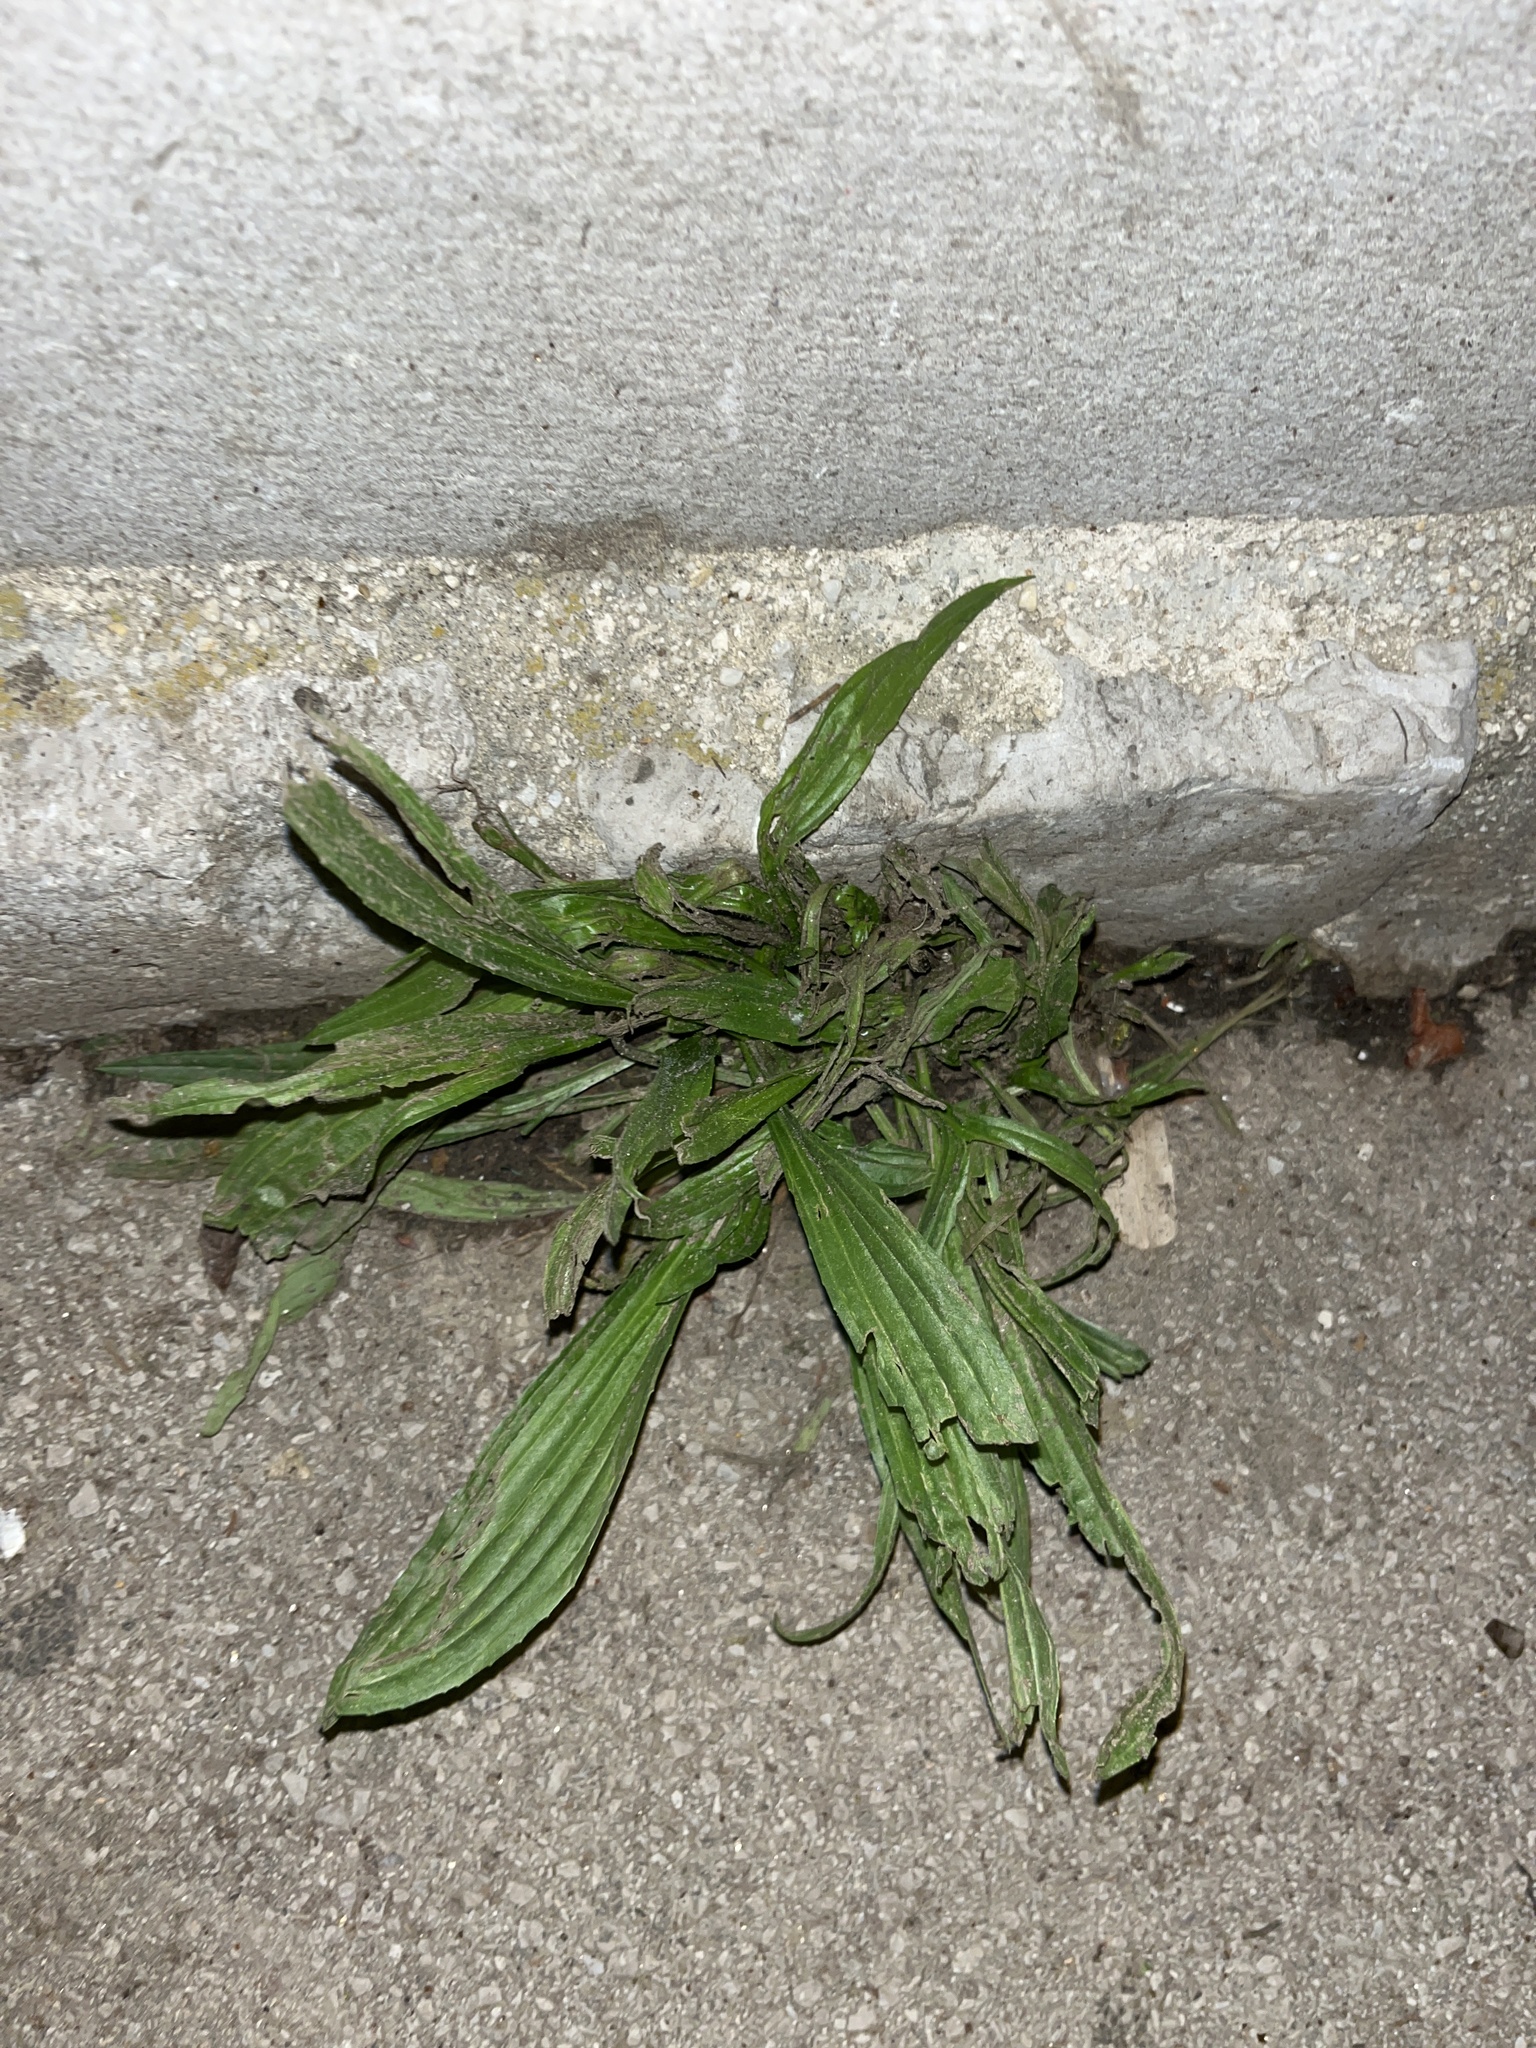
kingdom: Plantae
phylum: Tracheophyta
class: Magnoliopsida
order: Lamiales
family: Plantaginaceae
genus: Plantago
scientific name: Plantago lanceolata
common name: Ribwort plantain
